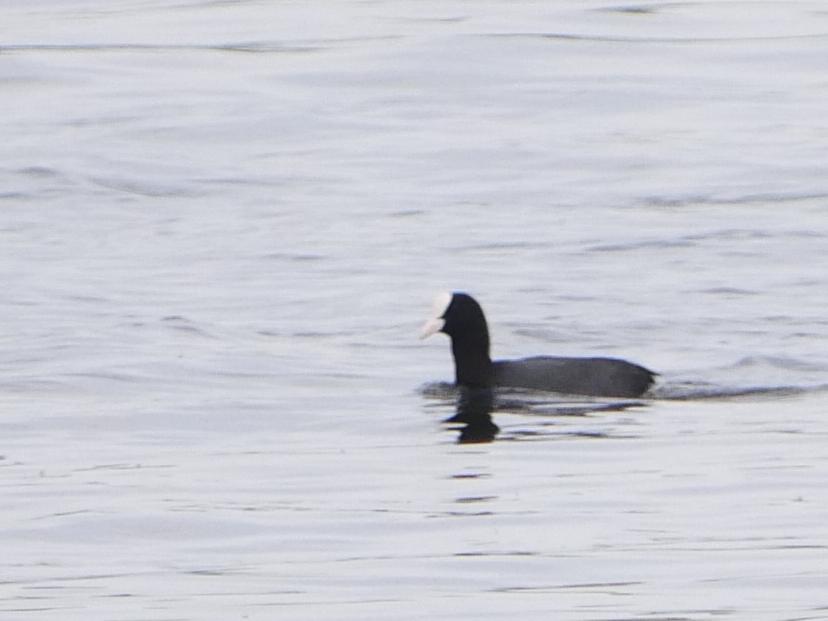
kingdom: Animalia
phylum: Chordata
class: Aves
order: Gruiformes
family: Rallidae
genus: Fulica
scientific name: Fulica atra
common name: Eurasian coot
